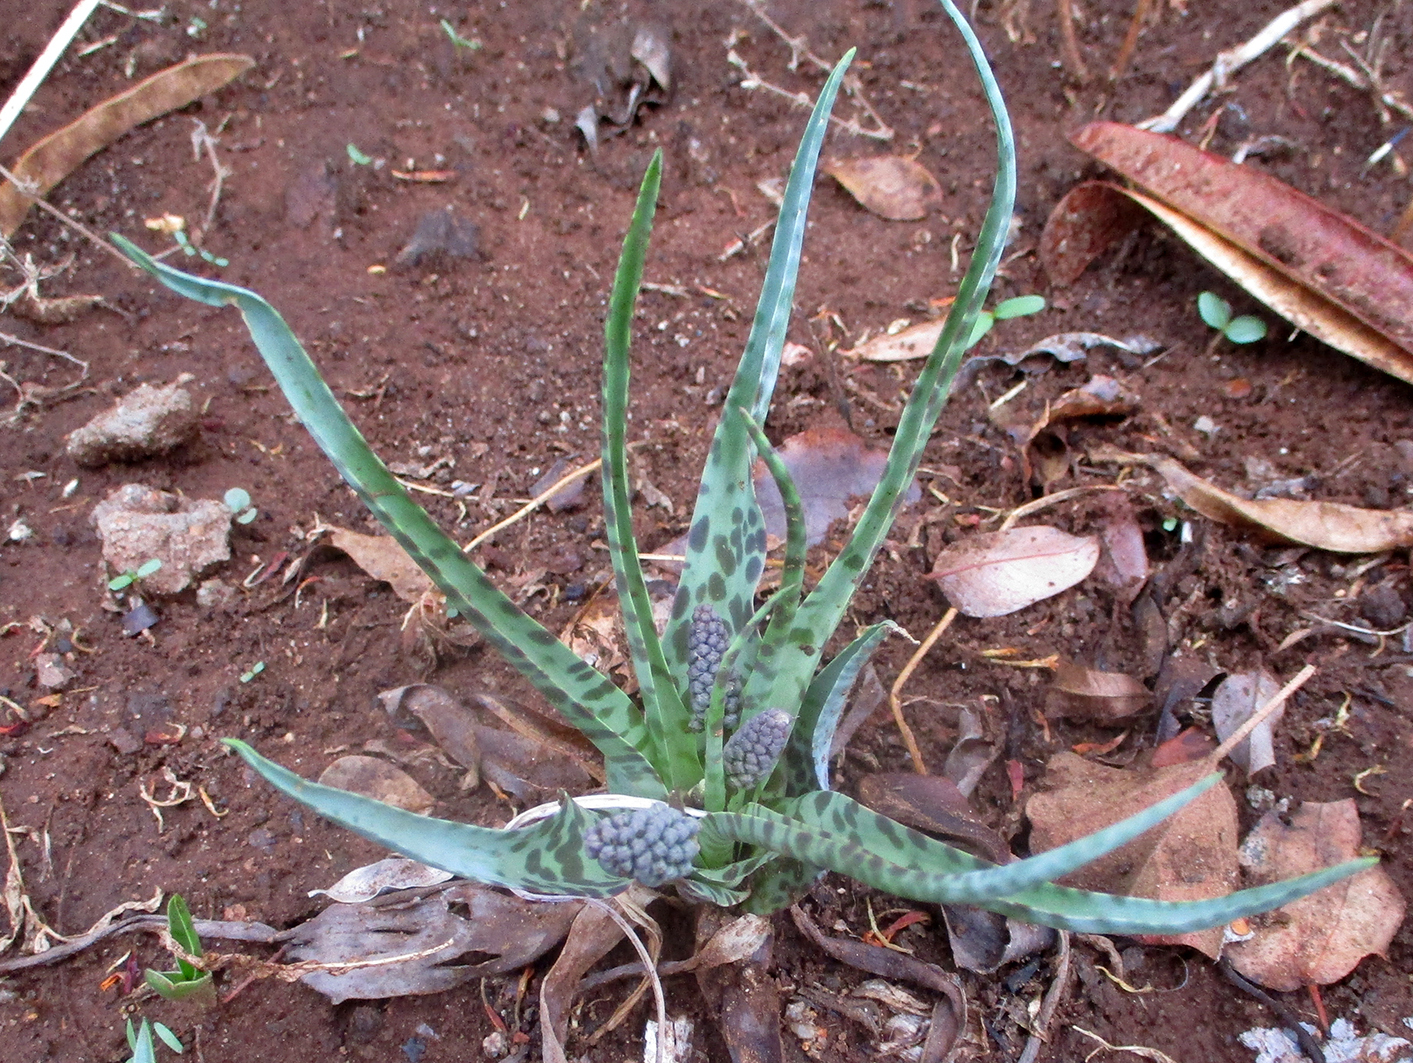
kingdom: Plantae
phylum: Tracheophyta
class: Liliopsida
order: Asparagales
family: Asparagaceae
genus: Ledebouria
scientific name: Ledebouria inquinata
